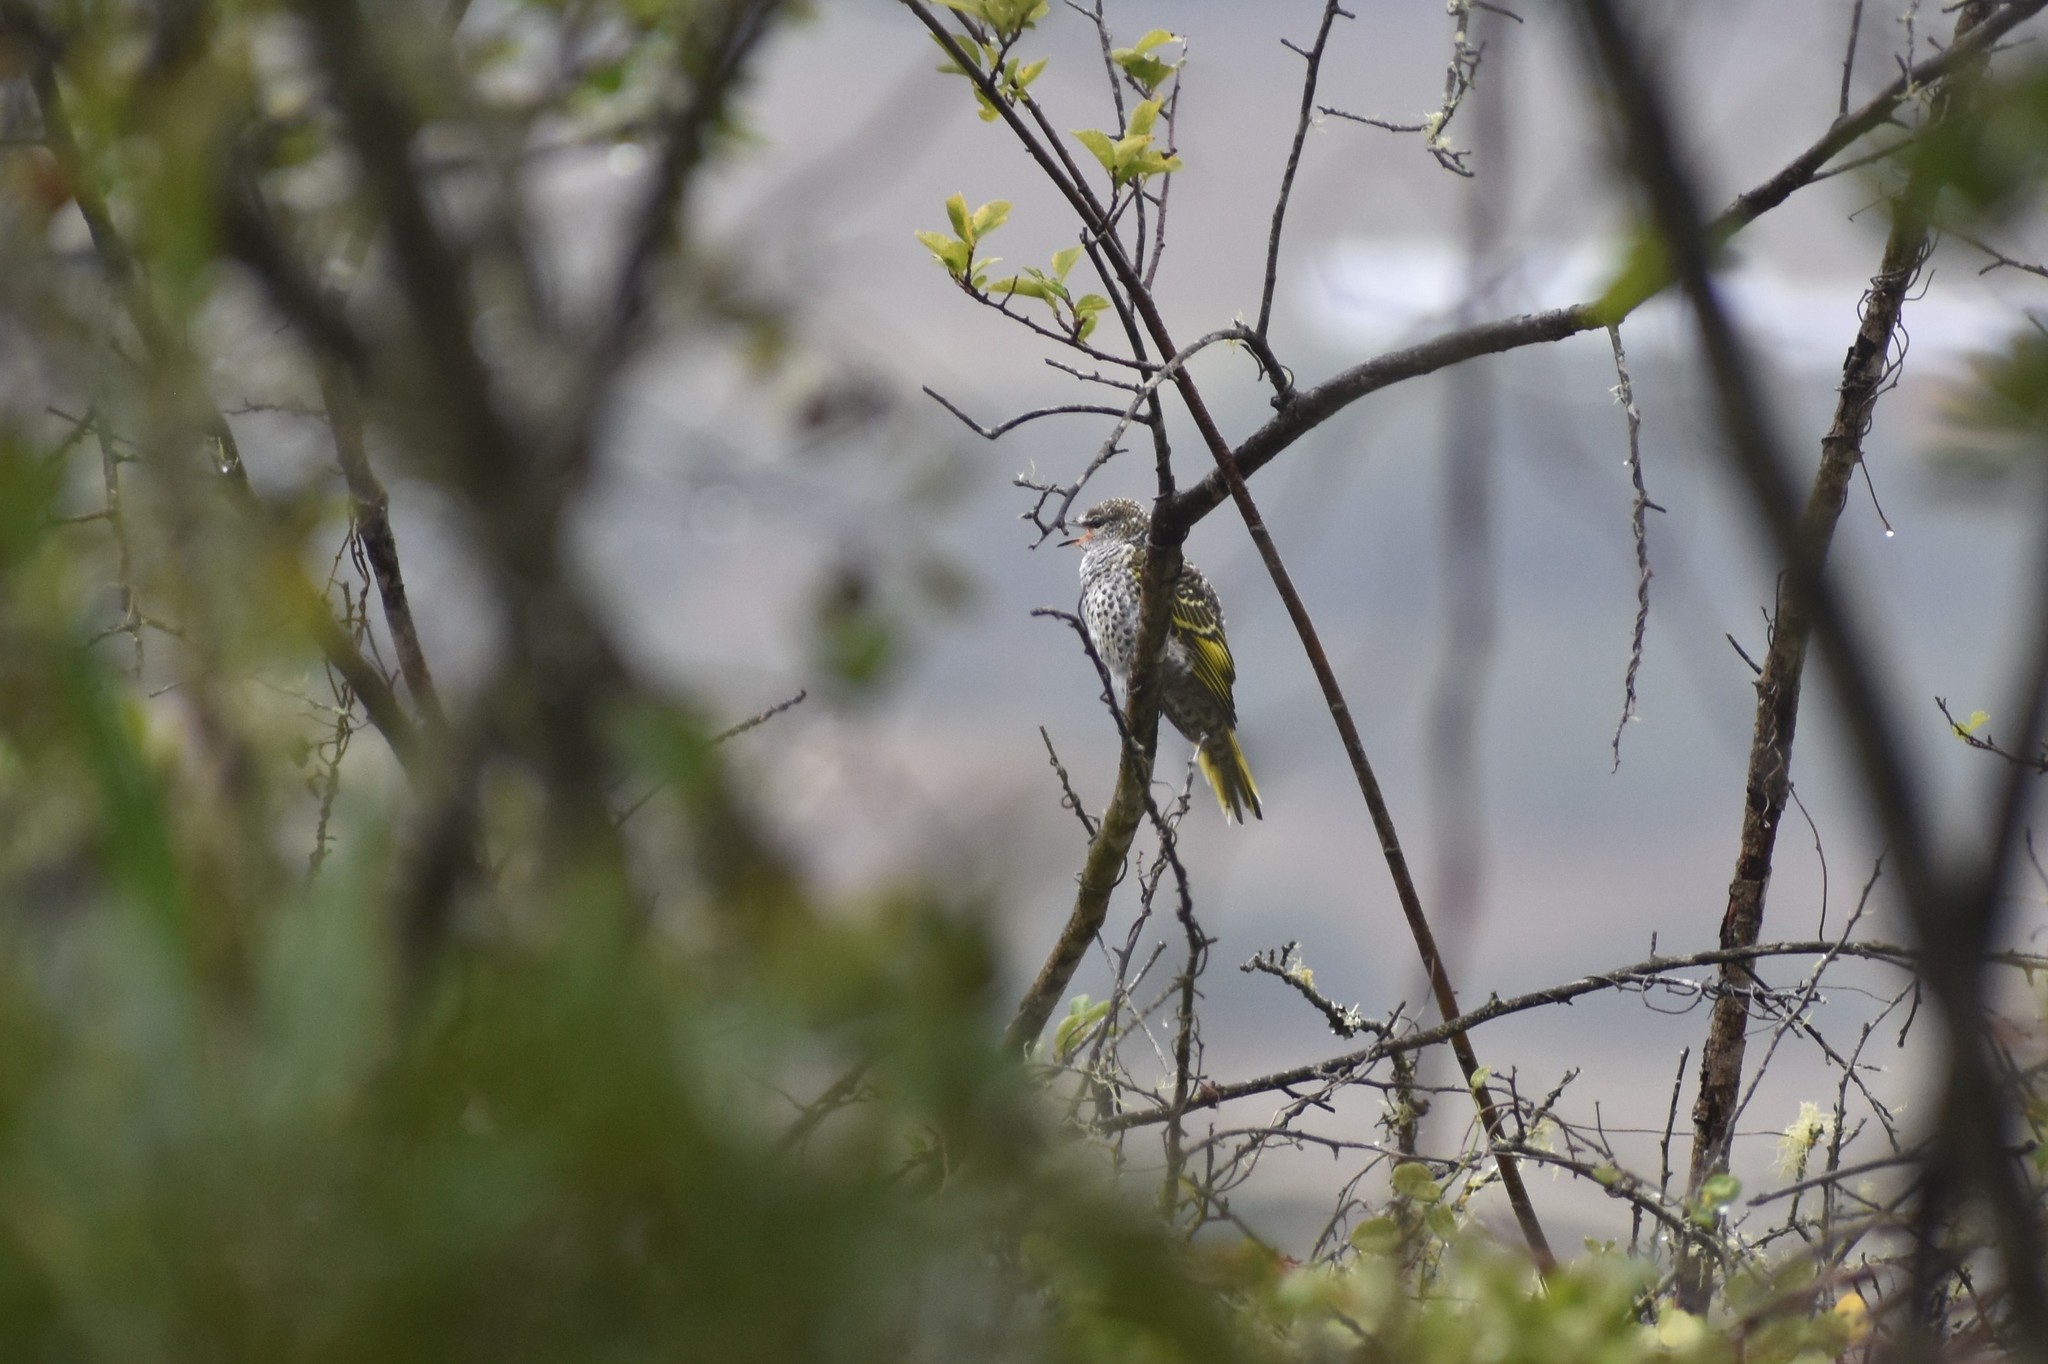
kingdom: Animalia
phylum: Chordata
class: Aves
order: Passeriformes
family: Campephagidae
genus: Campephaga
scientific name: Campephaga flava
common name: Black cuckooshrike
